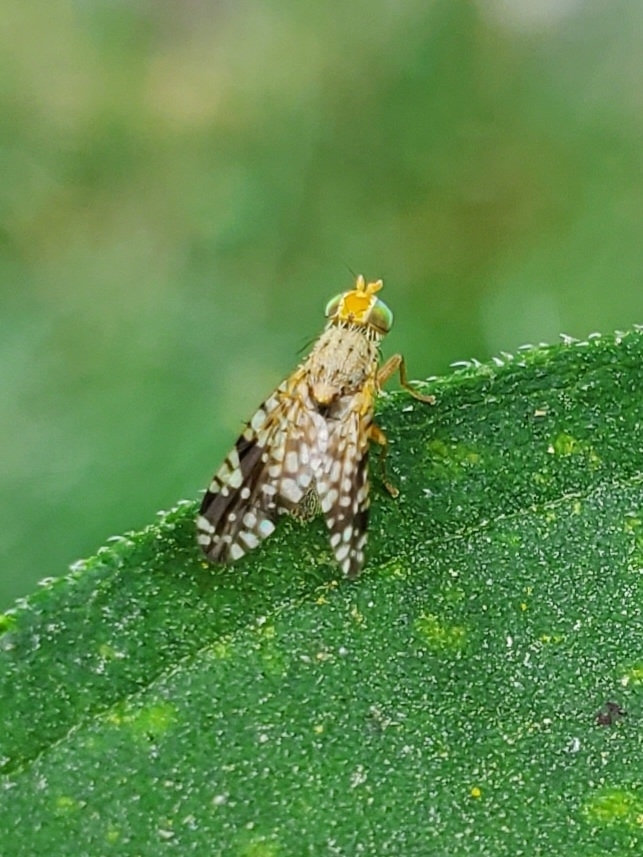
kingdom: Animalia
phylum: Arthropoda
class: Insecta
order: Diptera
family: Tephritidae
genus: Neotephritis
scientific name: Neotephritis finalis
